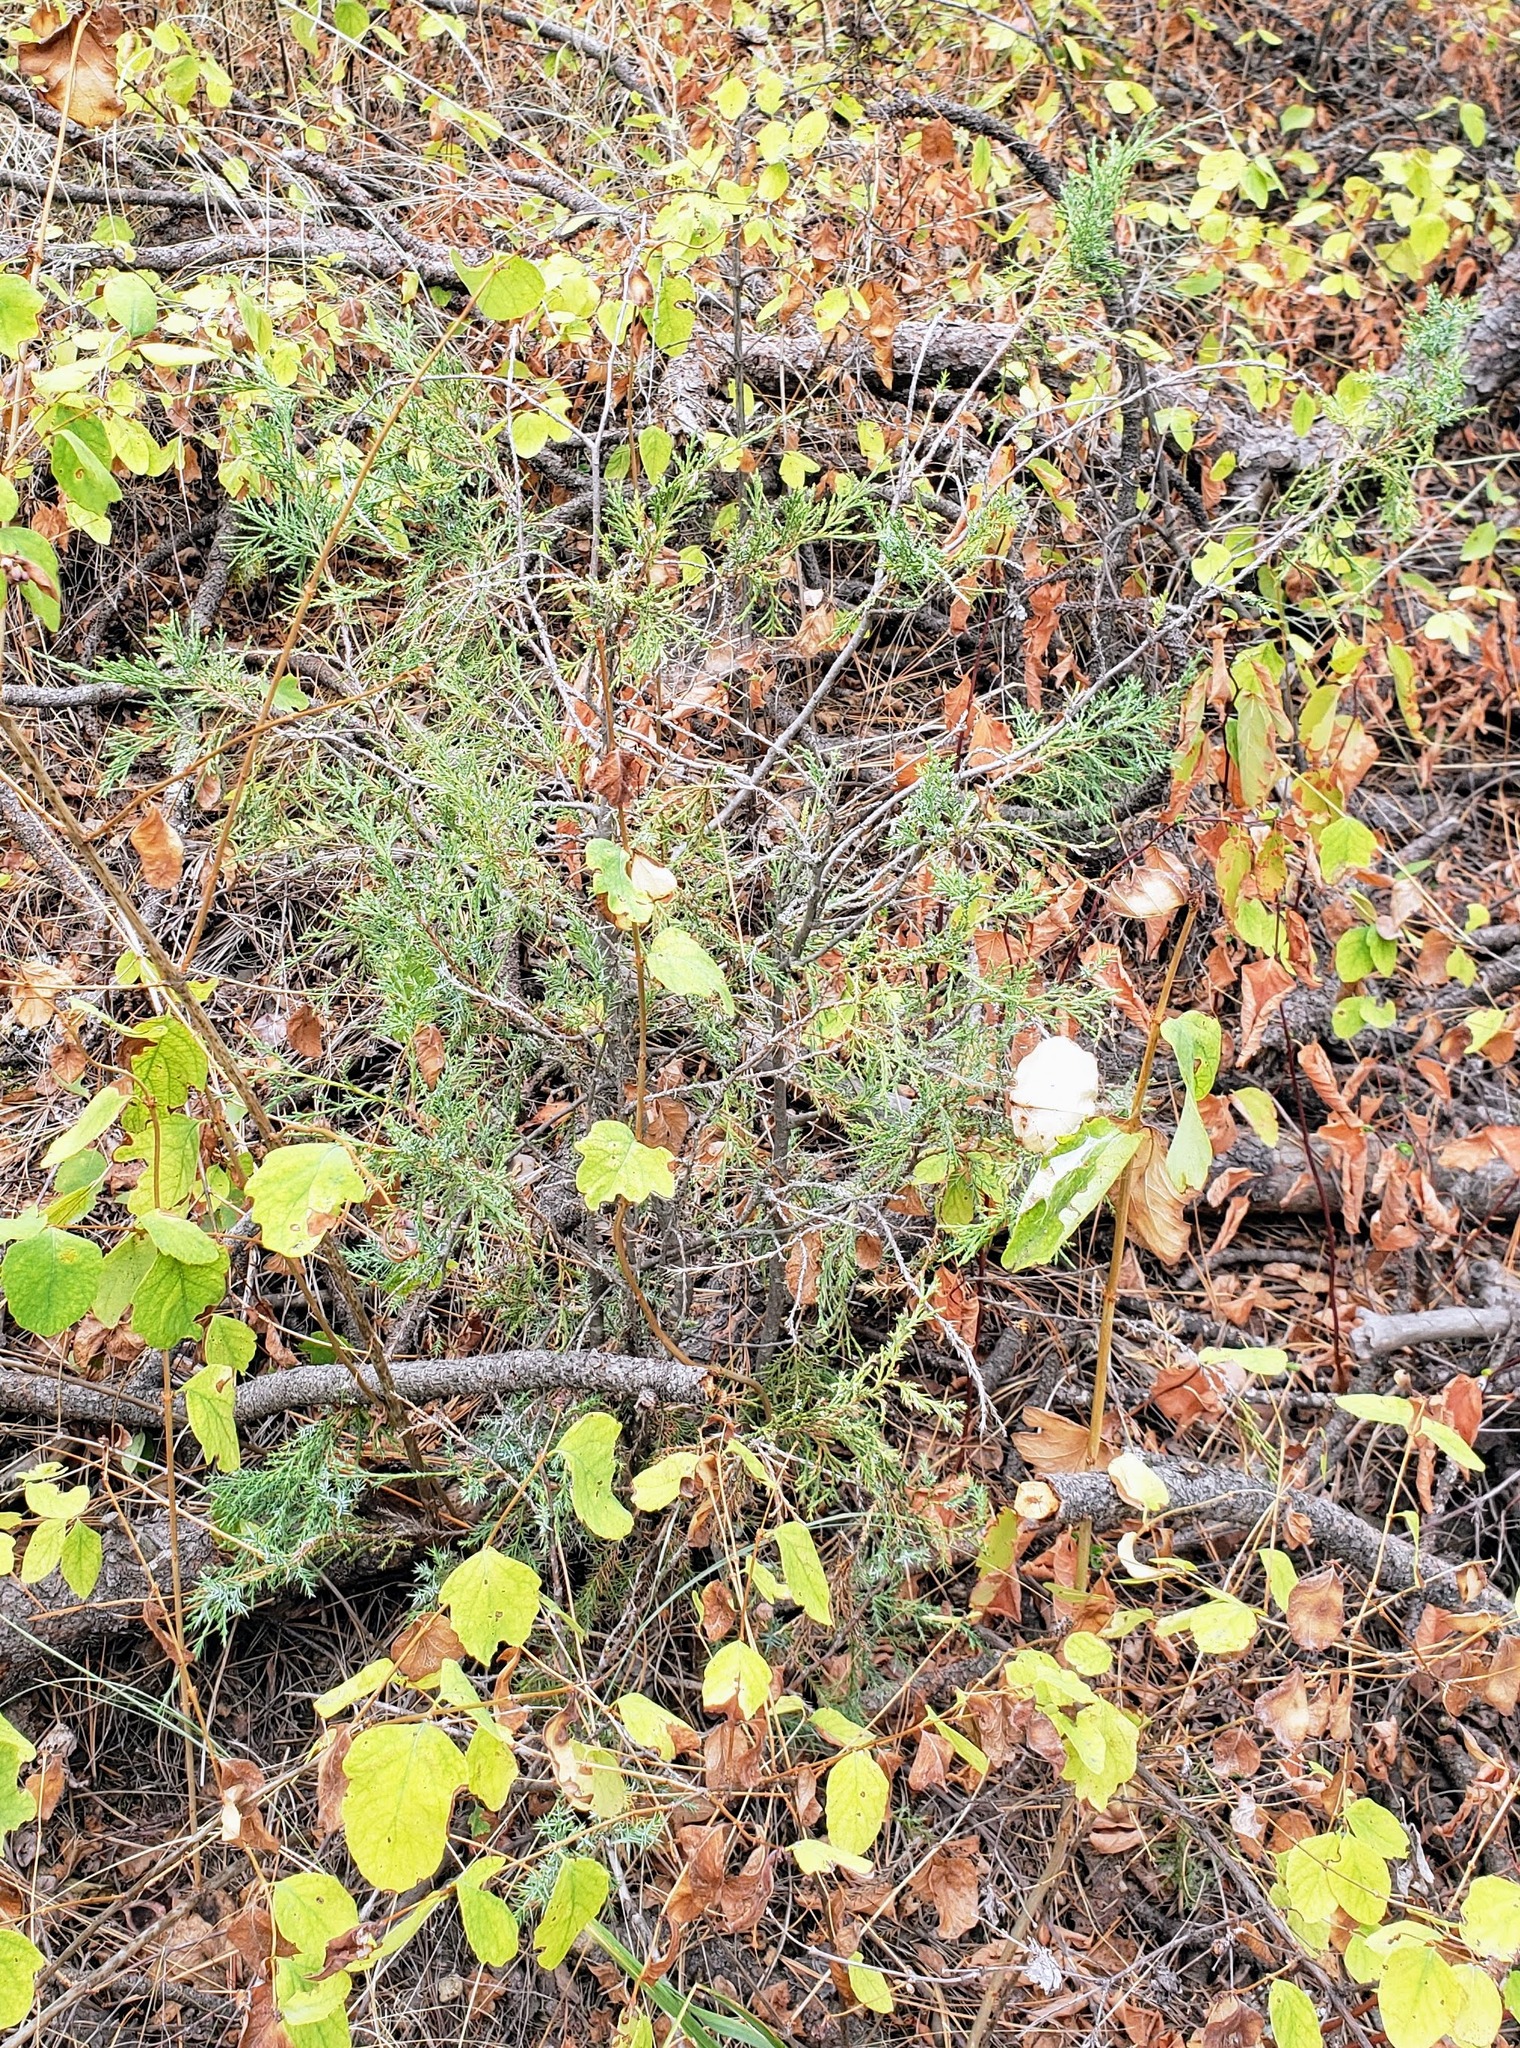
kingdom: Plantae
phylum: Tracheophyta
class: Pinopsida
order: Pinales
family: Cupressaceae
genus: Juniperus
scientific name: Juniperus scopulorum
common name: Rocky mountain juniper
